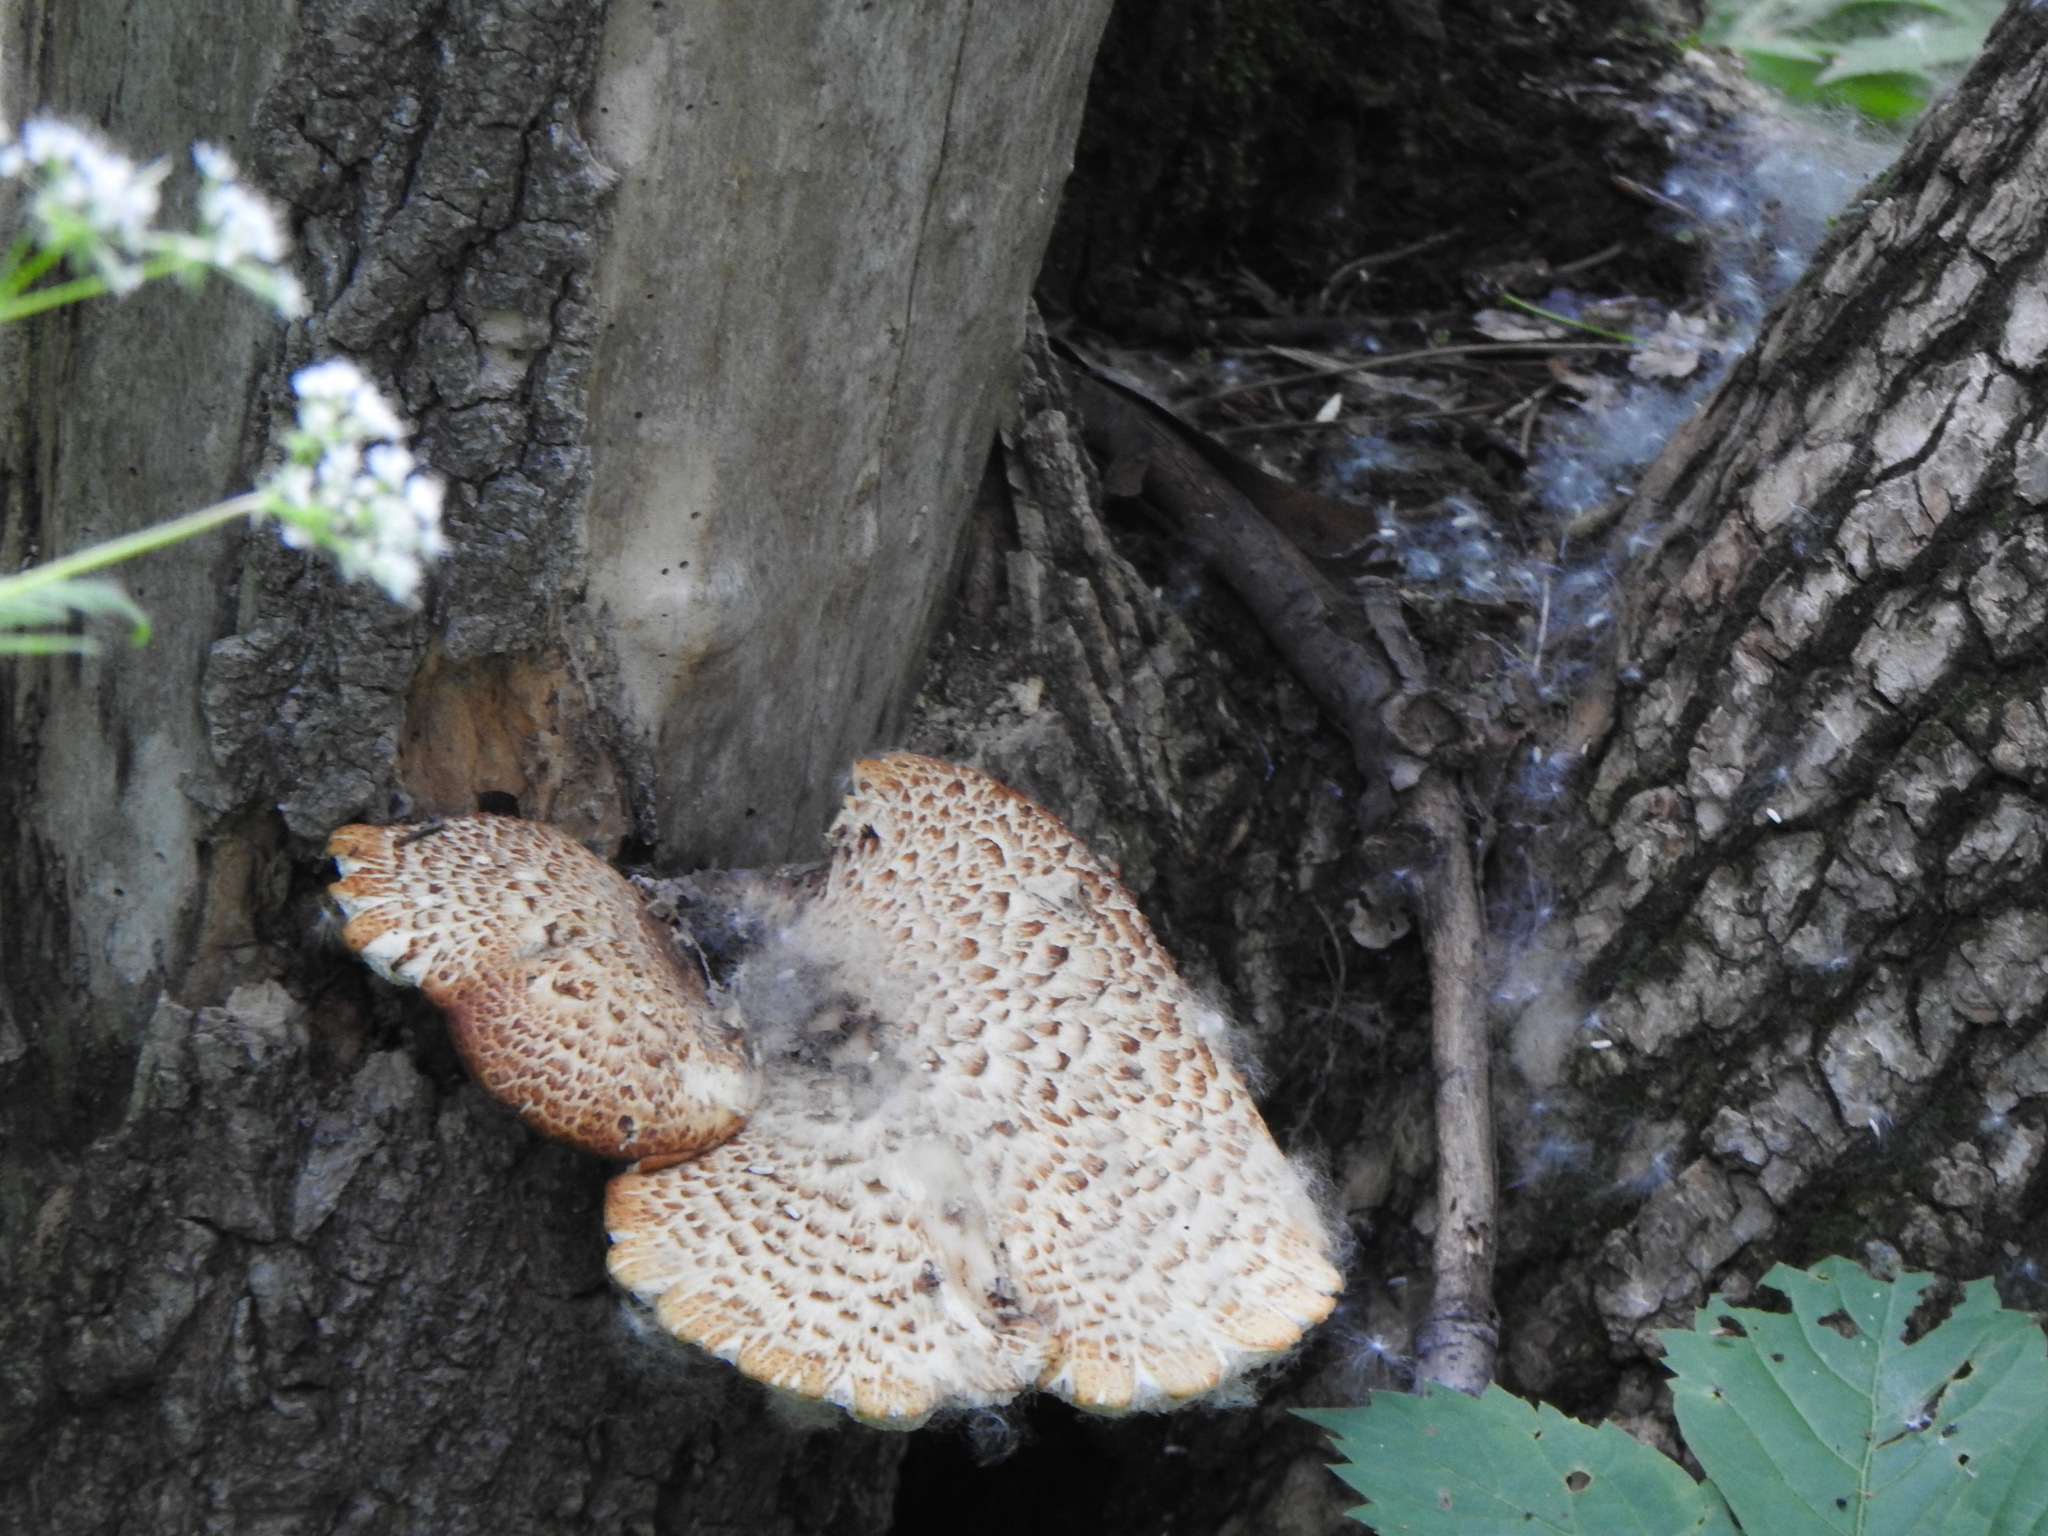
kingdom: Fungi
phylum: Basidiomycota
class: Agaricomycetes
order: Polyporales
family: Polyporaceae
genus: Cerioporus
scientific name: Cerioporus squamosus
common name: Dryad's saddle
